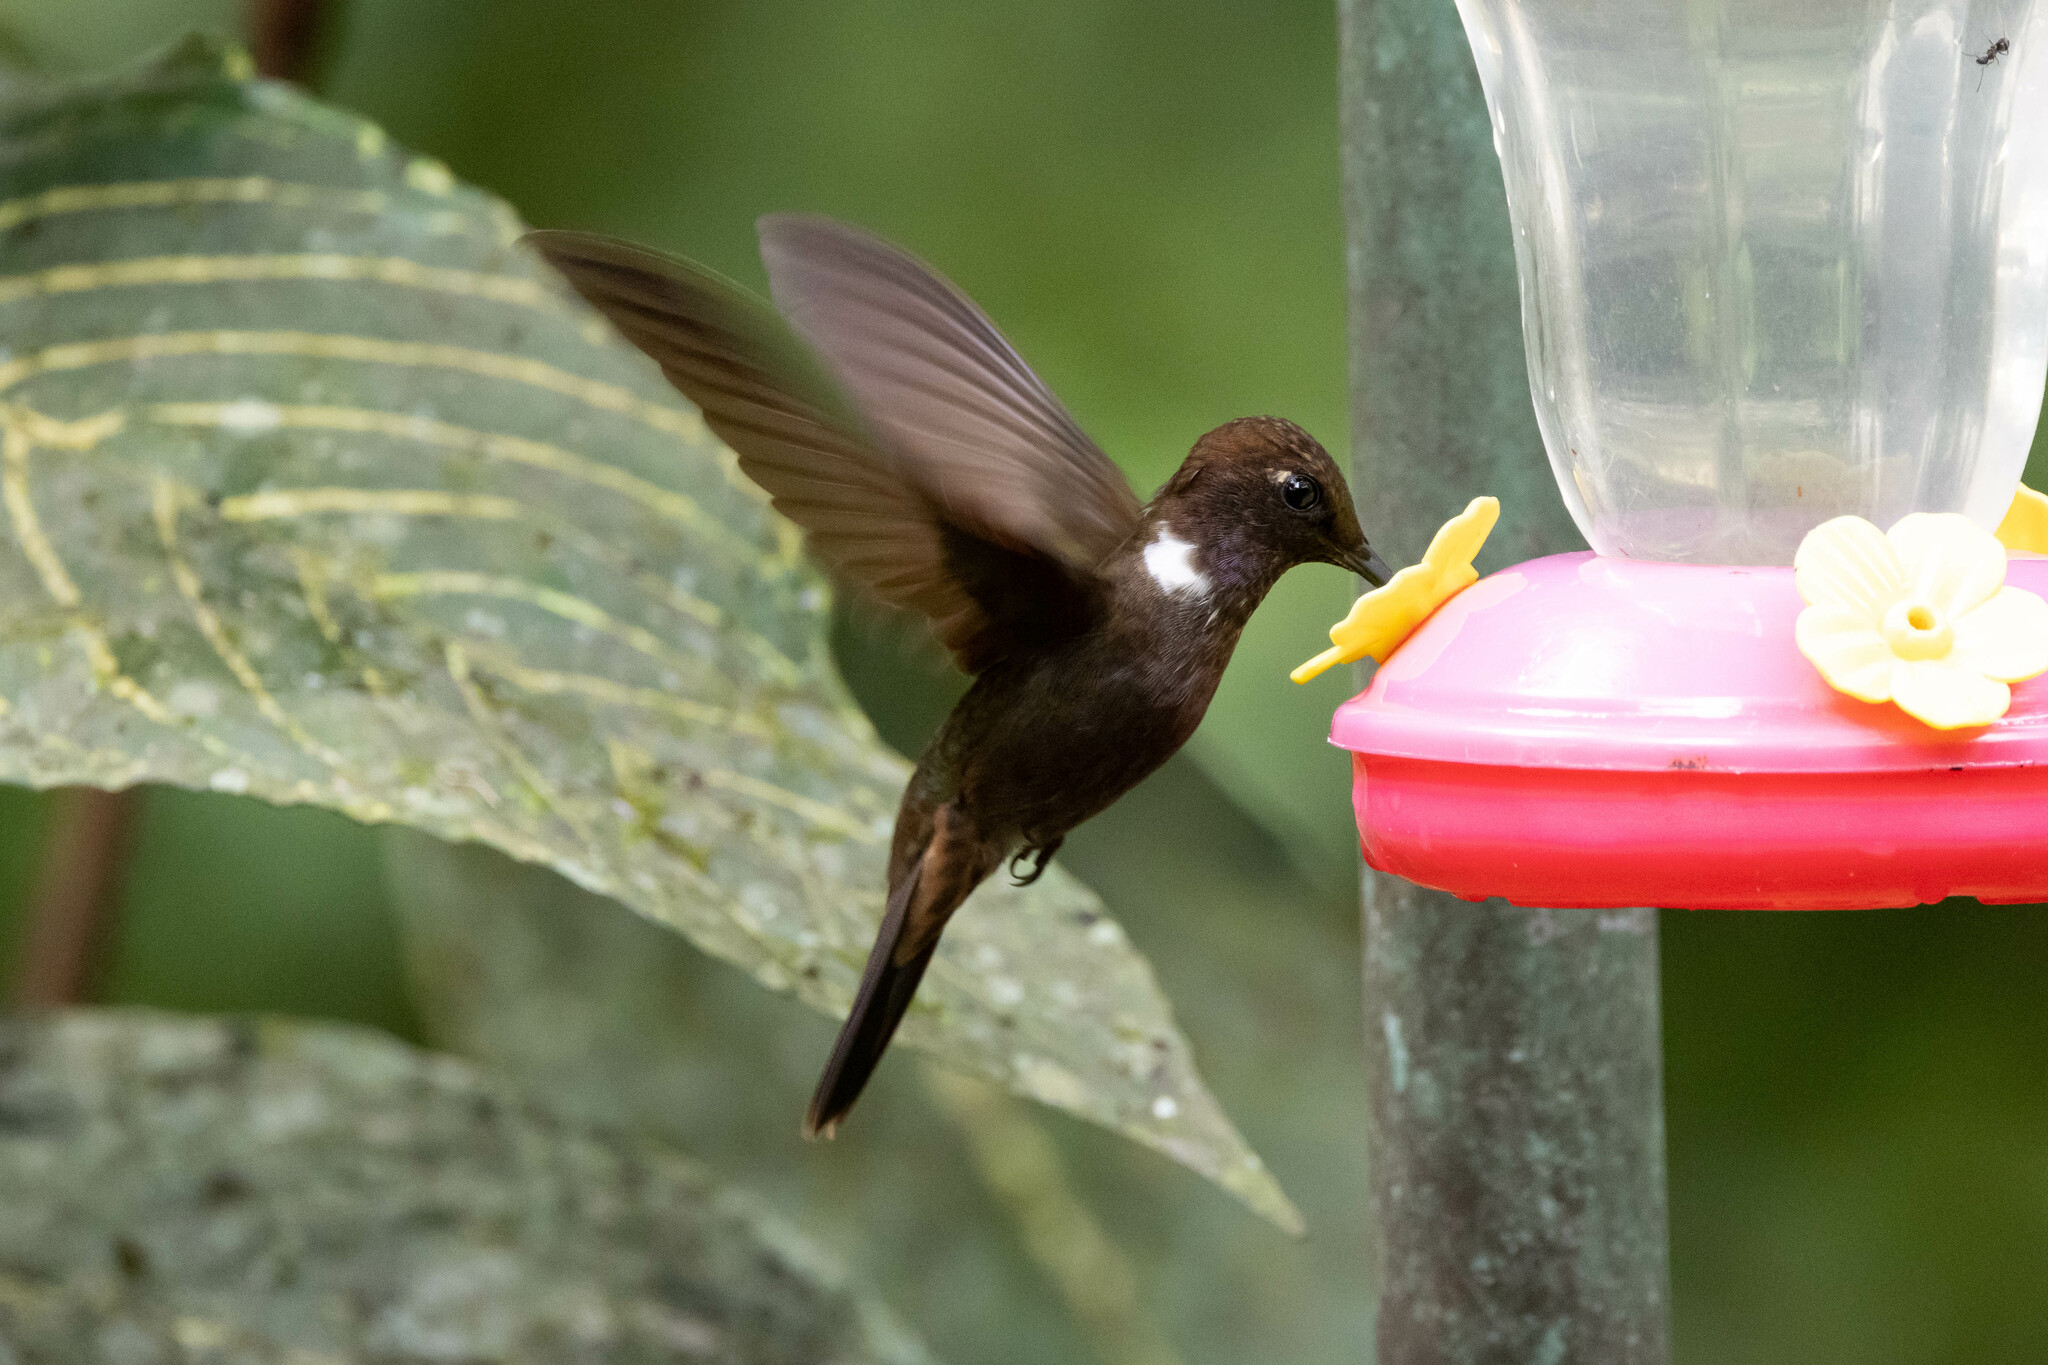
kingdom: Animalia
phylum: Chordata
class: Aves
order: Apodiformes
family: Trochilidae
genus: Coeligena
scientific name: Coeligena wilsoni
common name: Brown inca
